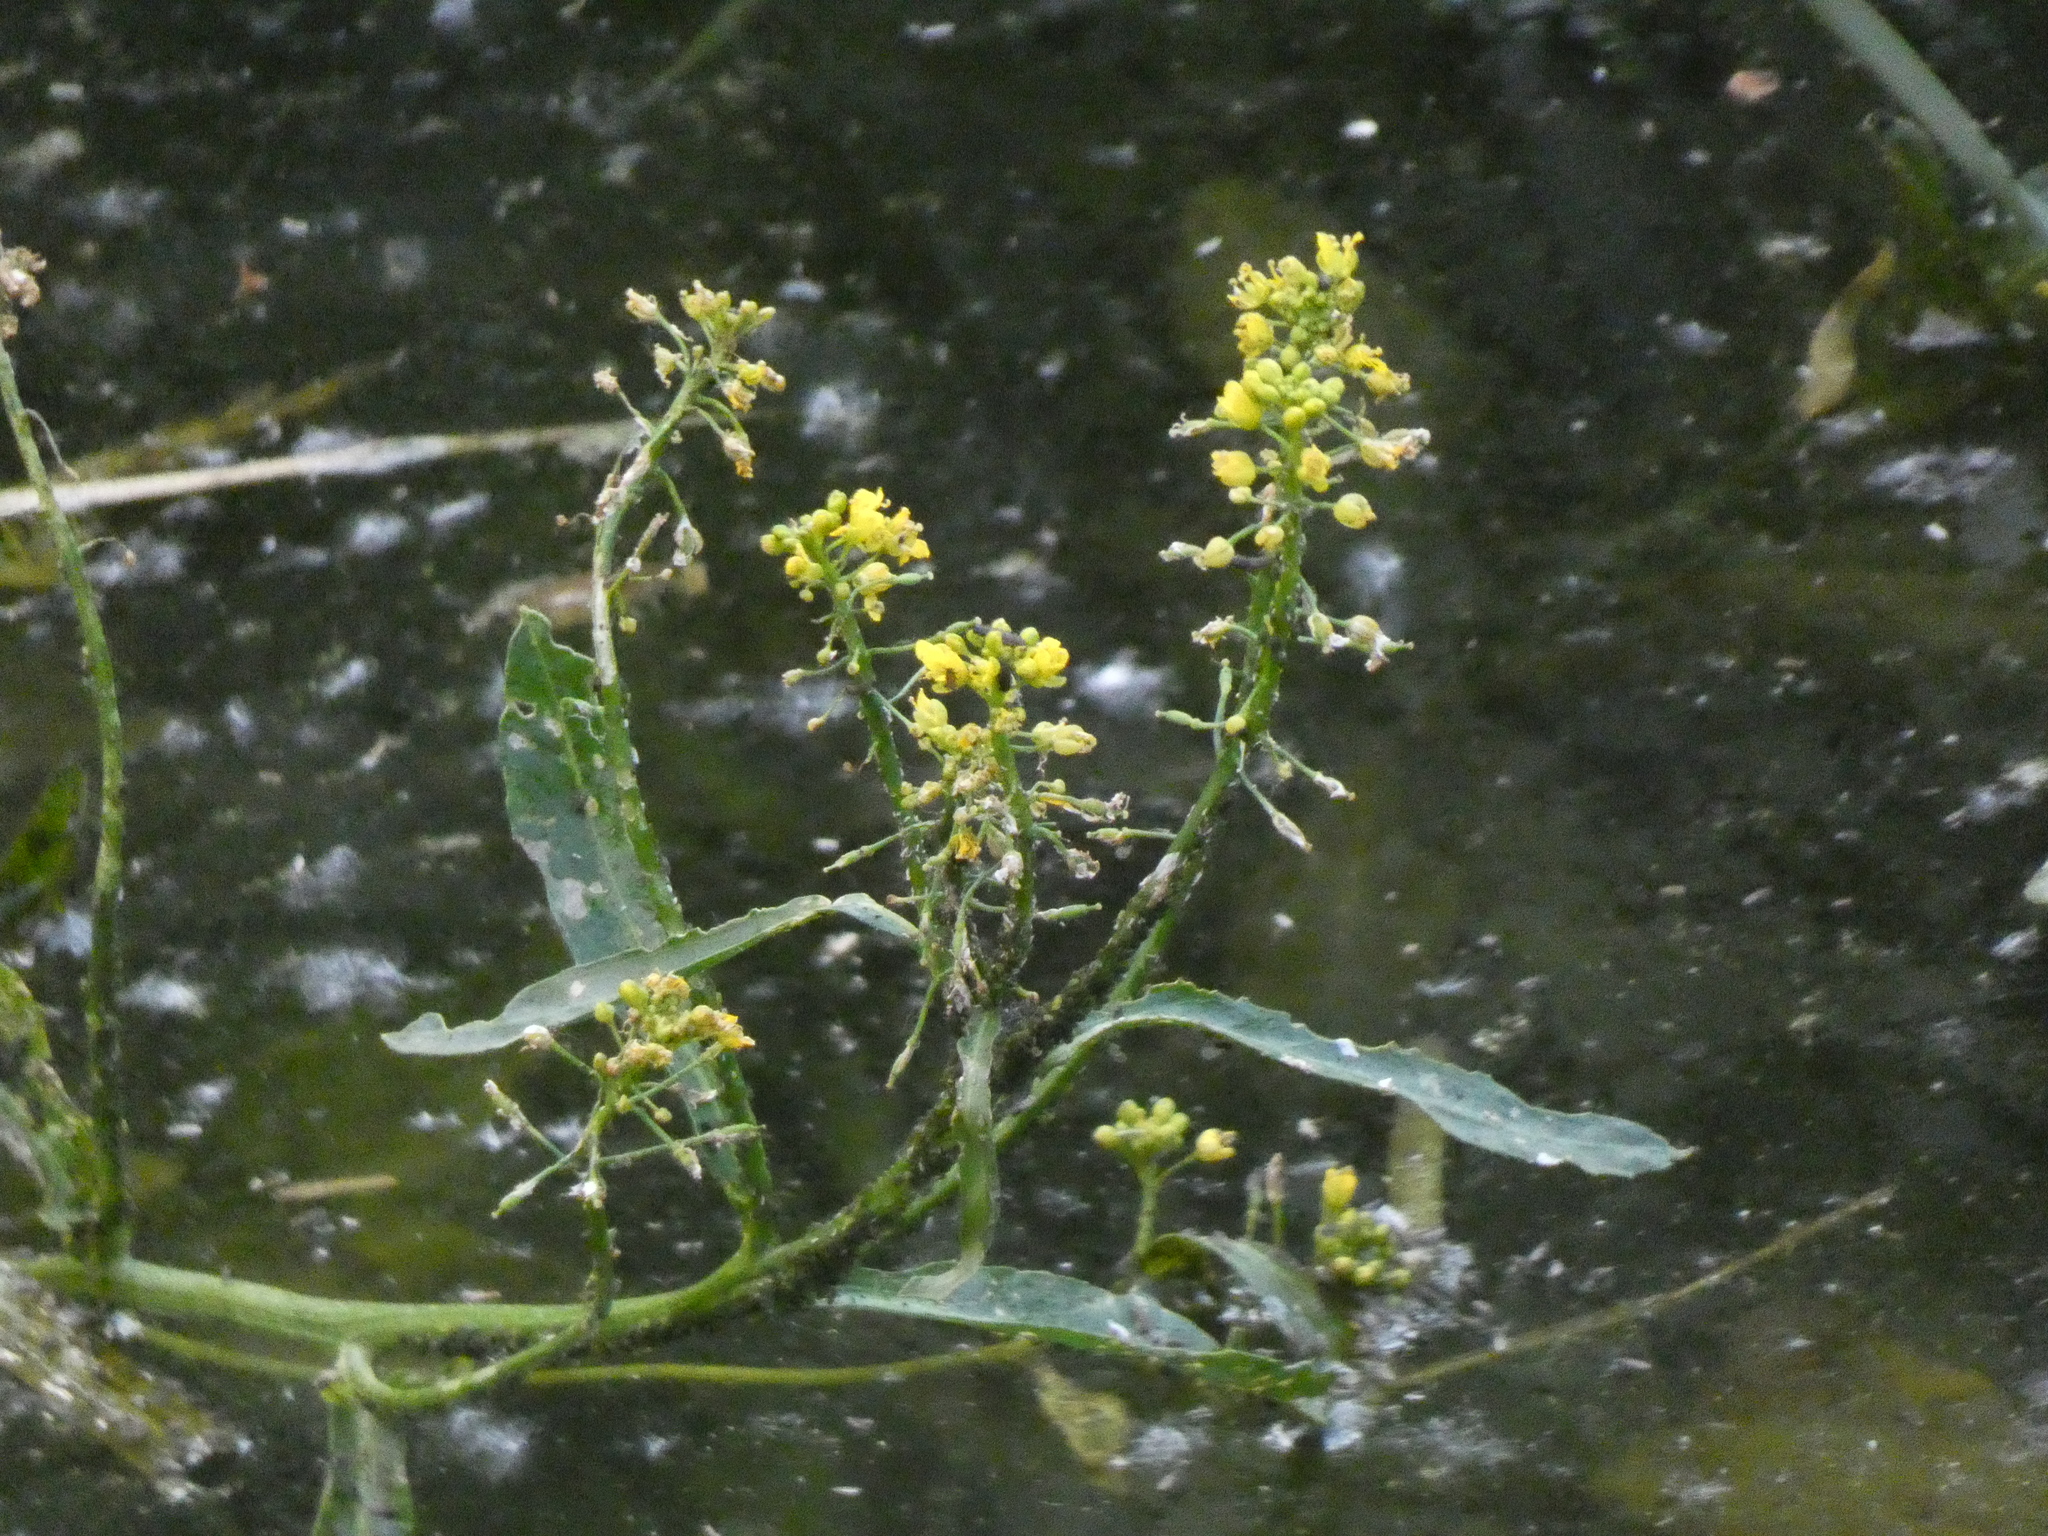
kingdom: Plantae
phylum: Tracheophyta
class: Magnoliopsida
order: Brassicales
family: Brassicaceae
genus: Rorippa
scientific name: Rorippa amphibia
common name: Great yellow-cress
